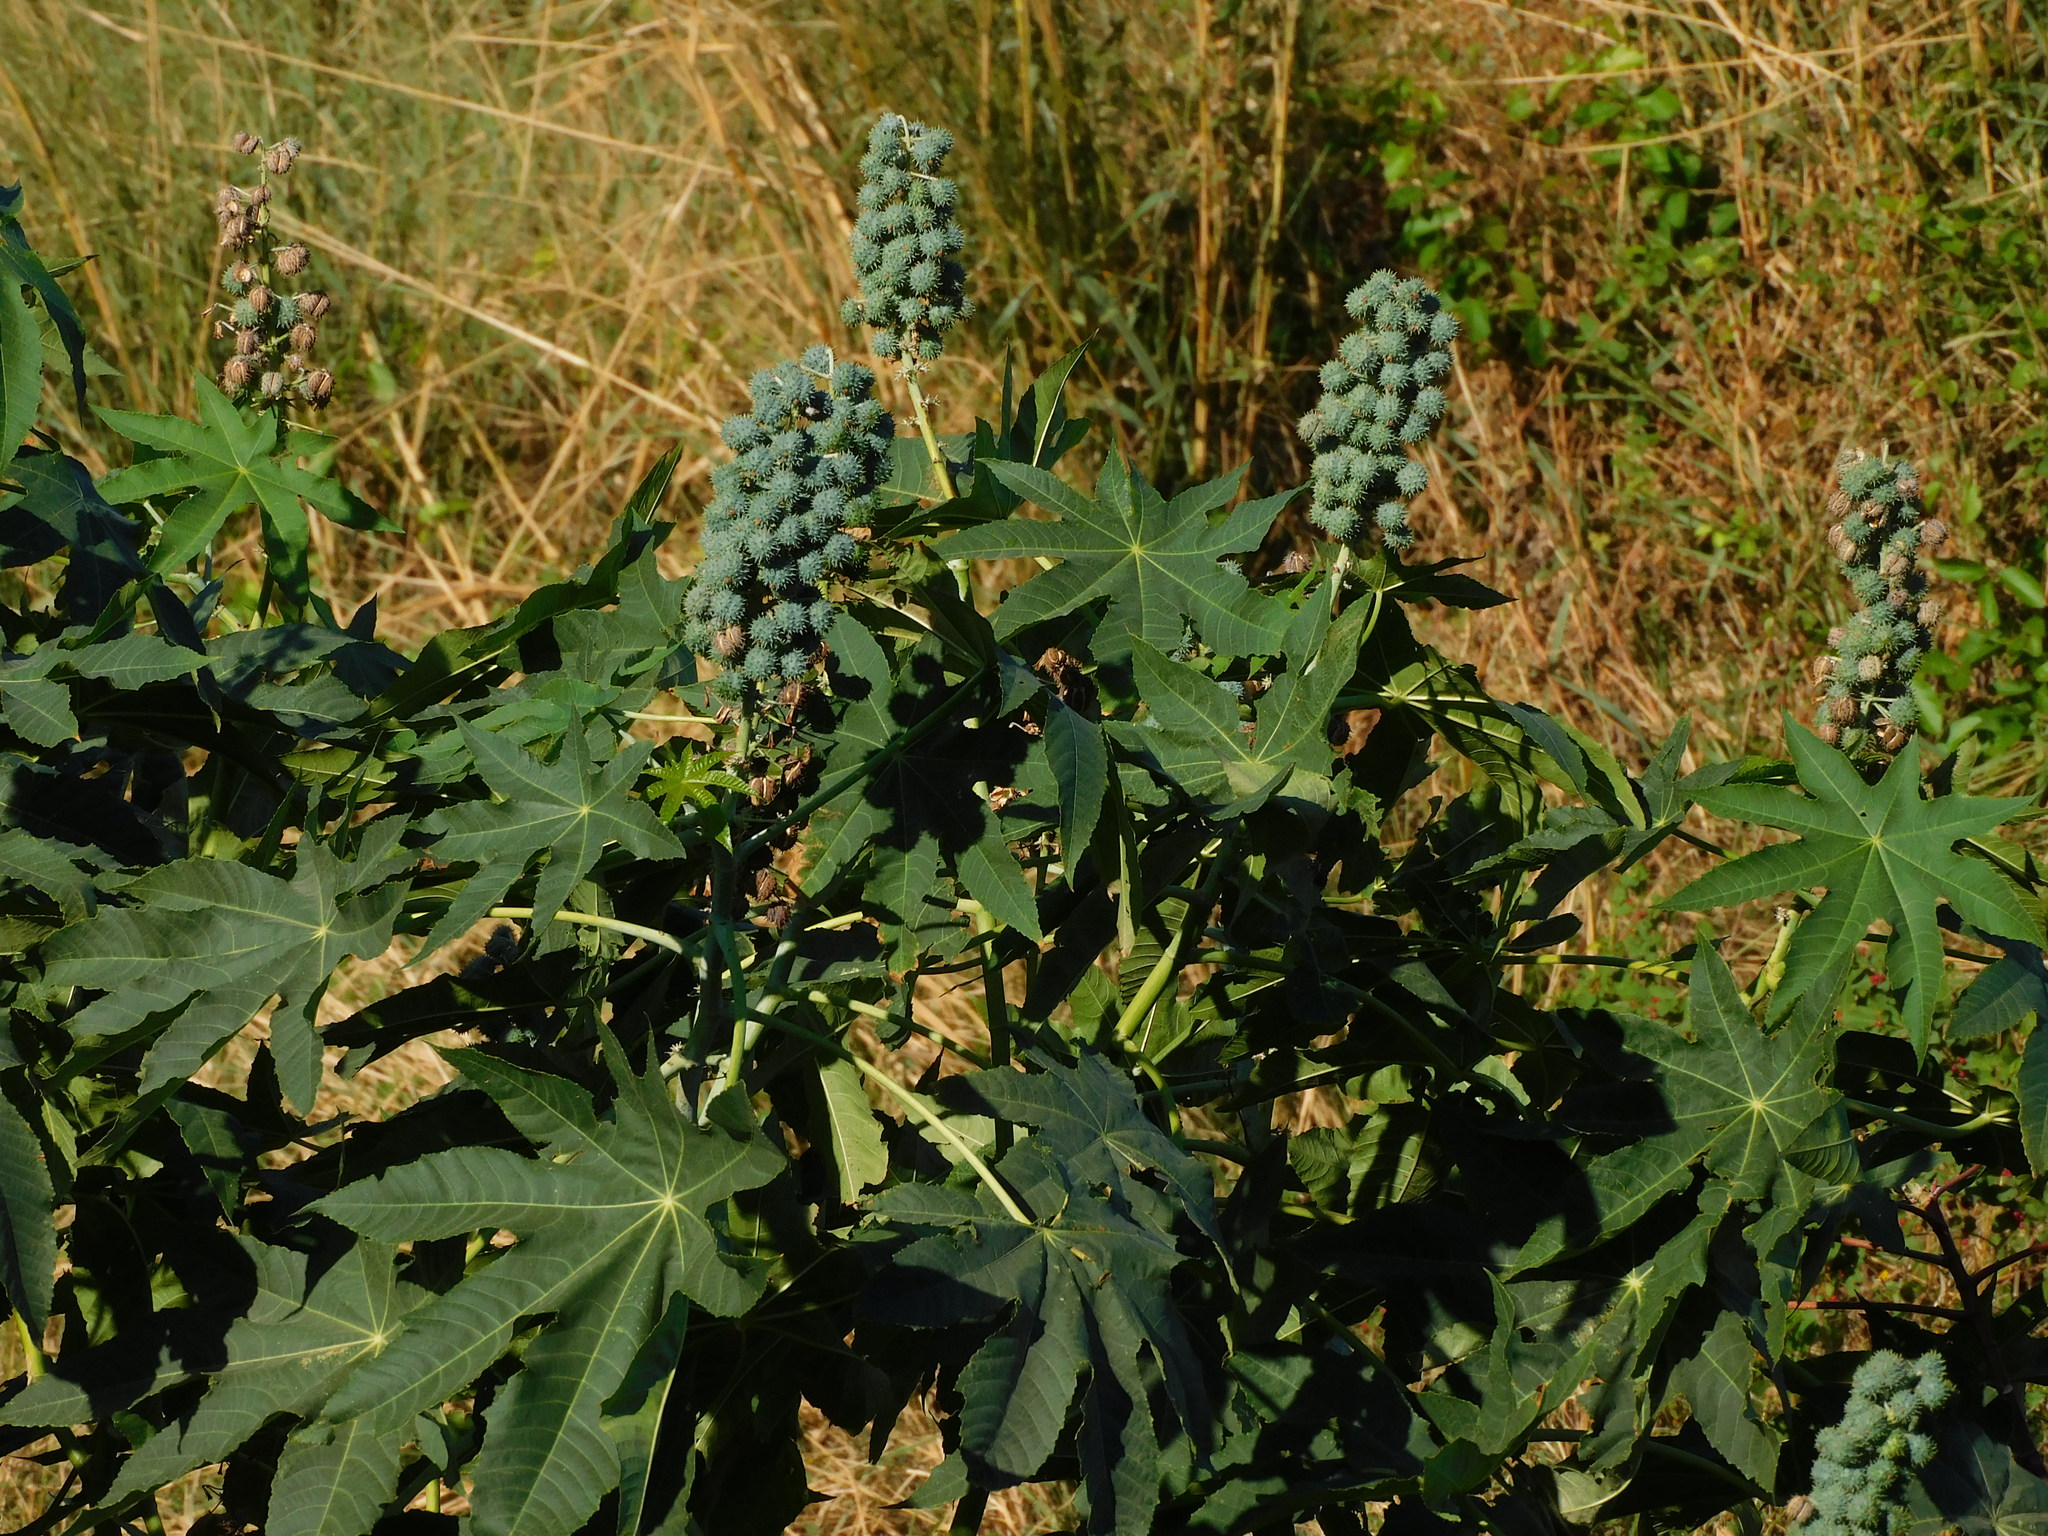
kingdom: Plantae
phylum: Tracheophyta
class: Magnoliopsida
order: Malpighiales
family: Euphorbiaceae
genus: Ricinus
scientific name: Ricinus communis
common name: Castor-oil-plant
